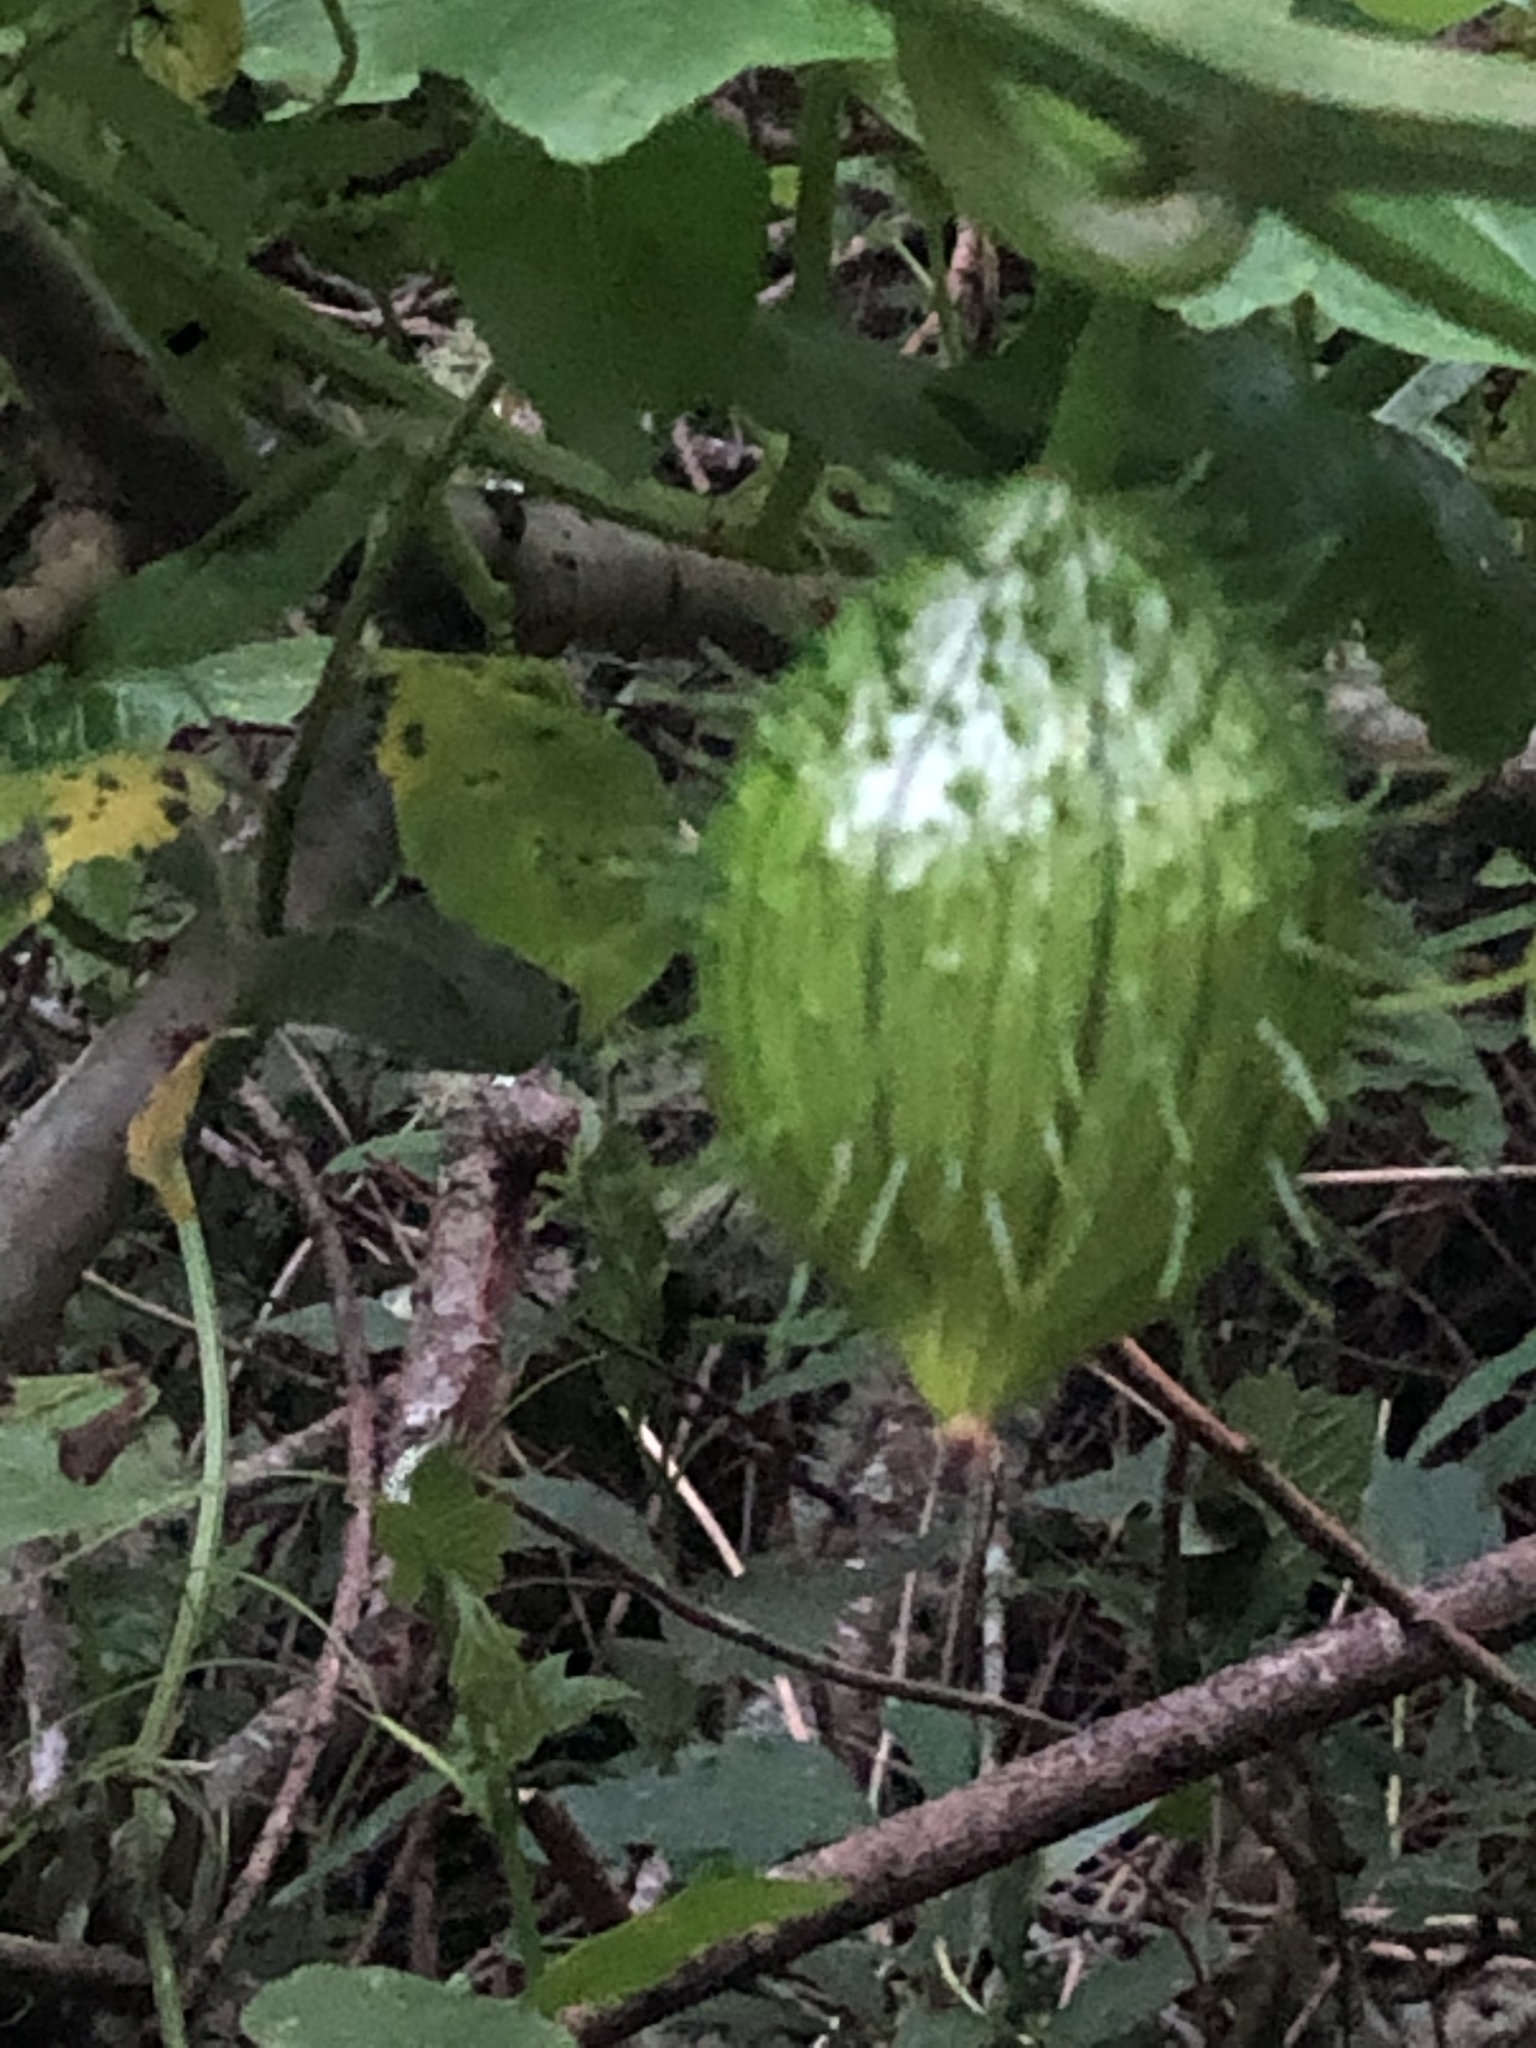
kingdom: Plantae
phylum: Tracheophyta
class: Magnoliopsida
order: Cucurbitales
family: Cucurbitaceae
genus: Marah
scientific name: Marah oregana
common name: Coastal manroot
